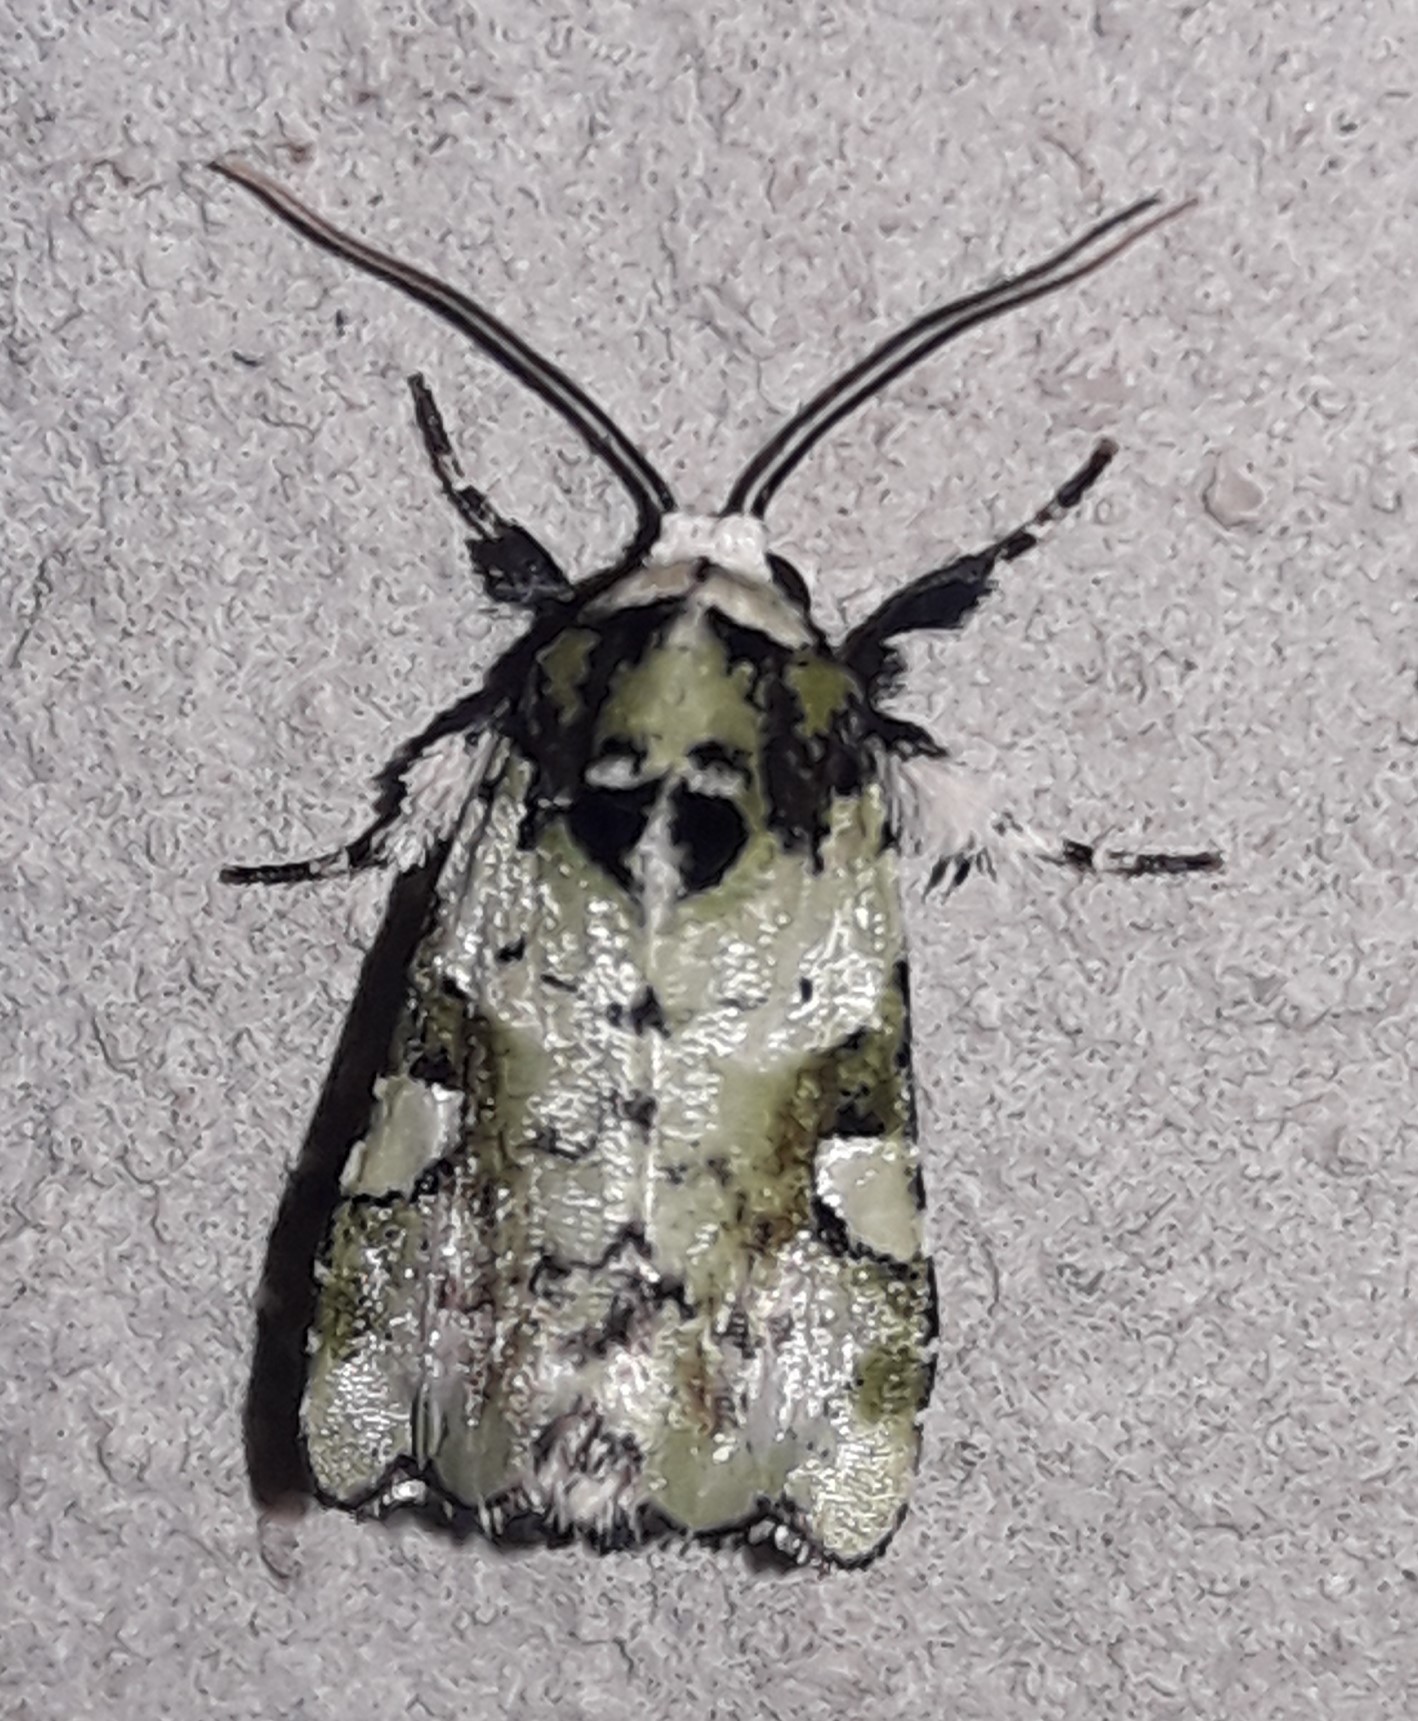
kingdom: Animalia
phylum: Arthropoda
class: Insecta
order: Lepidoptera
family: Noctuidae
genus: Emarginea
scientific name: Emarginea niphoplaga
